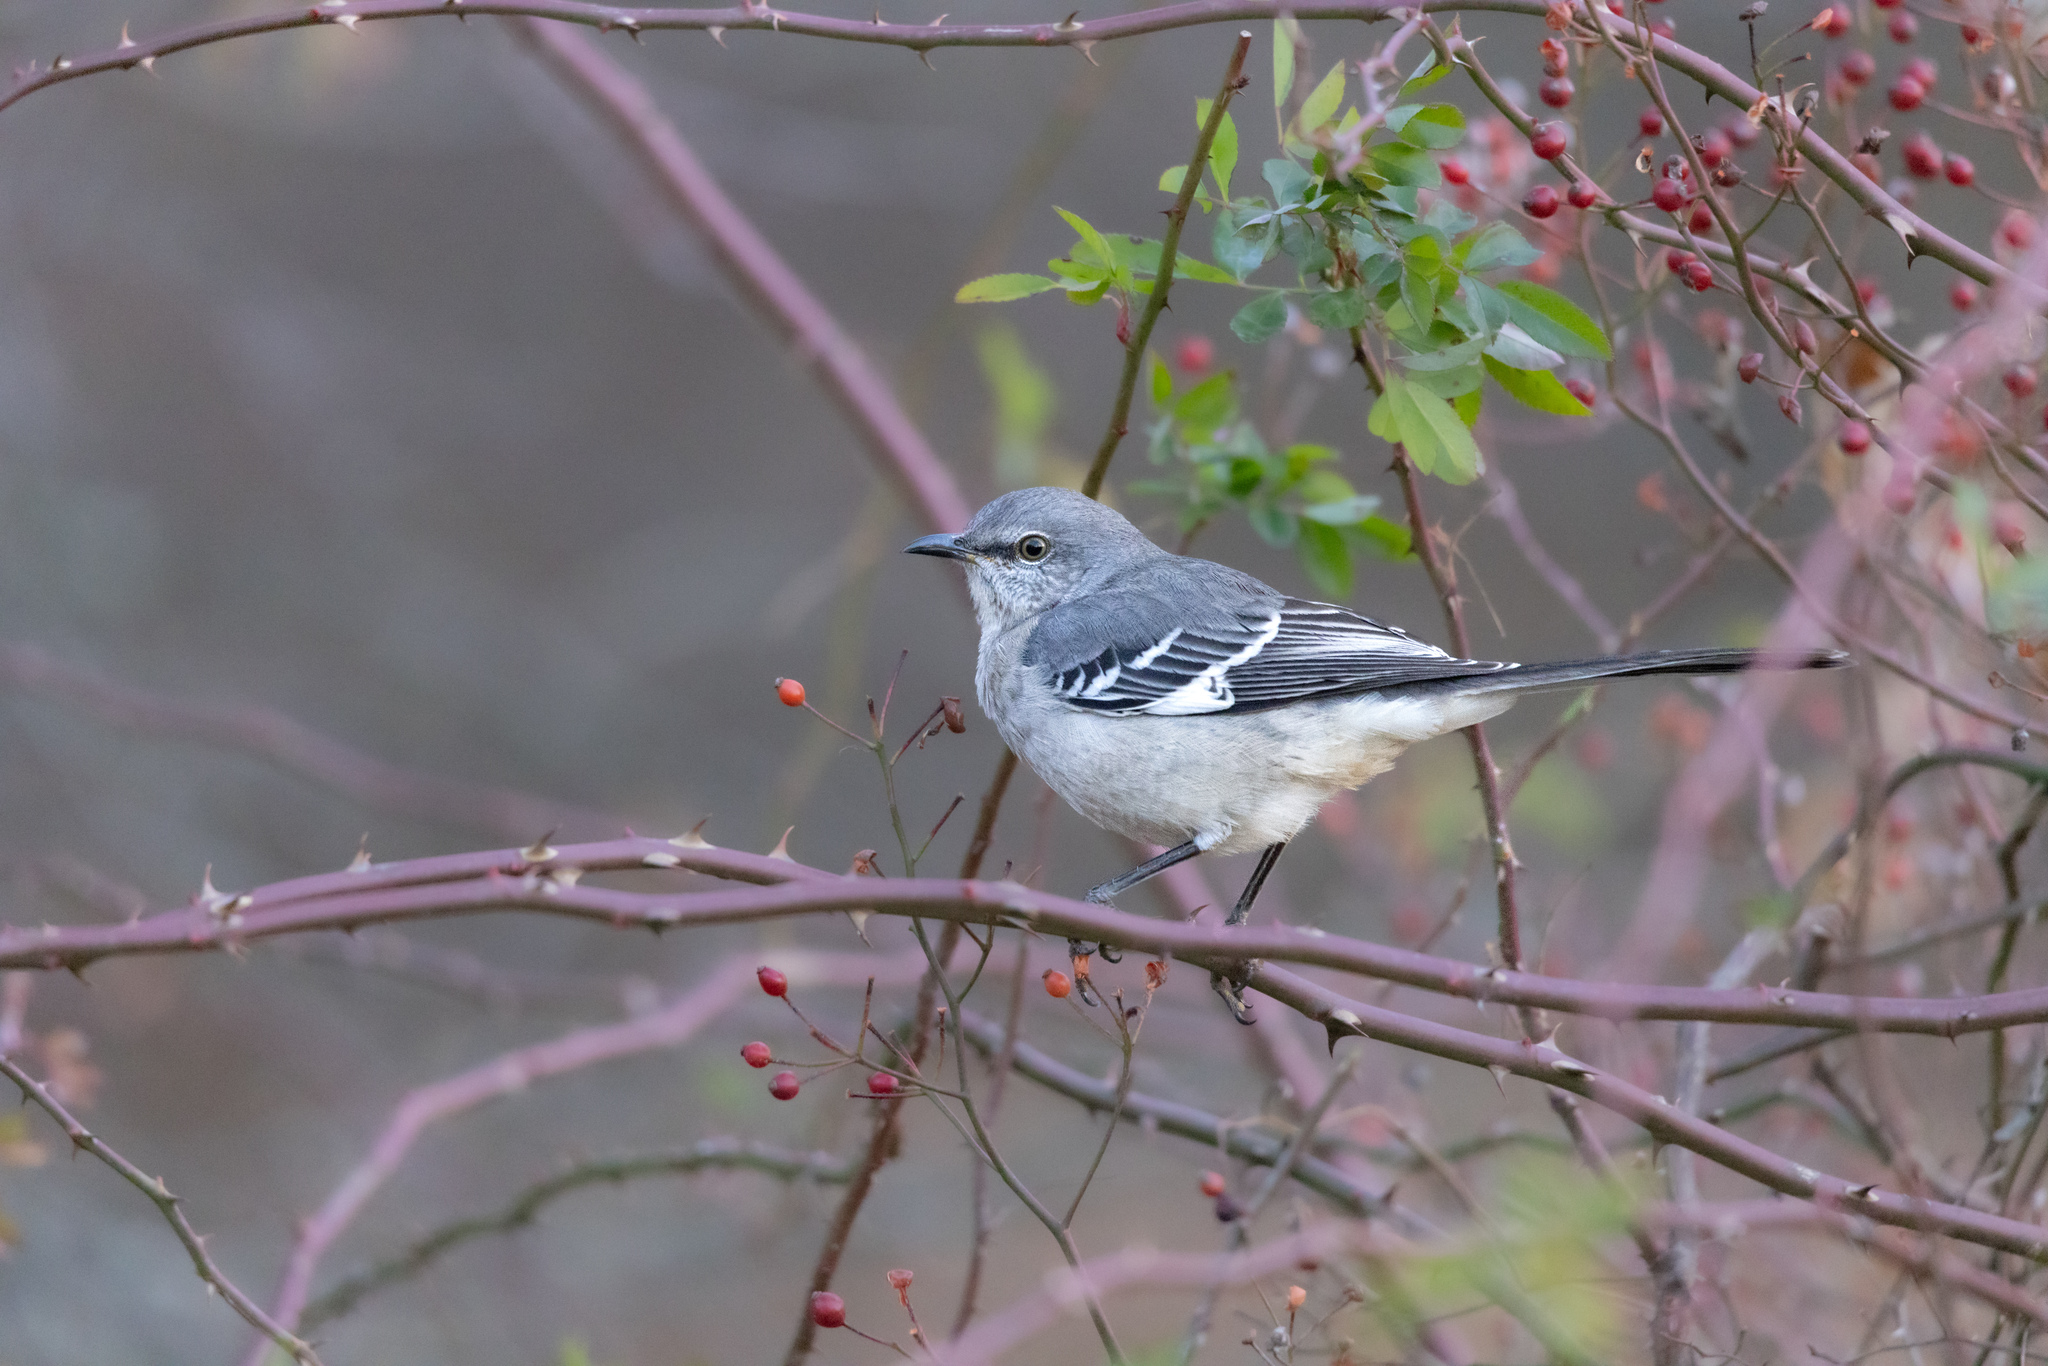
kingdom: Animalia
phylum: Chordata
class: Aves
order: Passeriformes
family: Mimidae
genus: Mimus
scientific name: Mimus polyglottos
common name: Northern mockingbird
